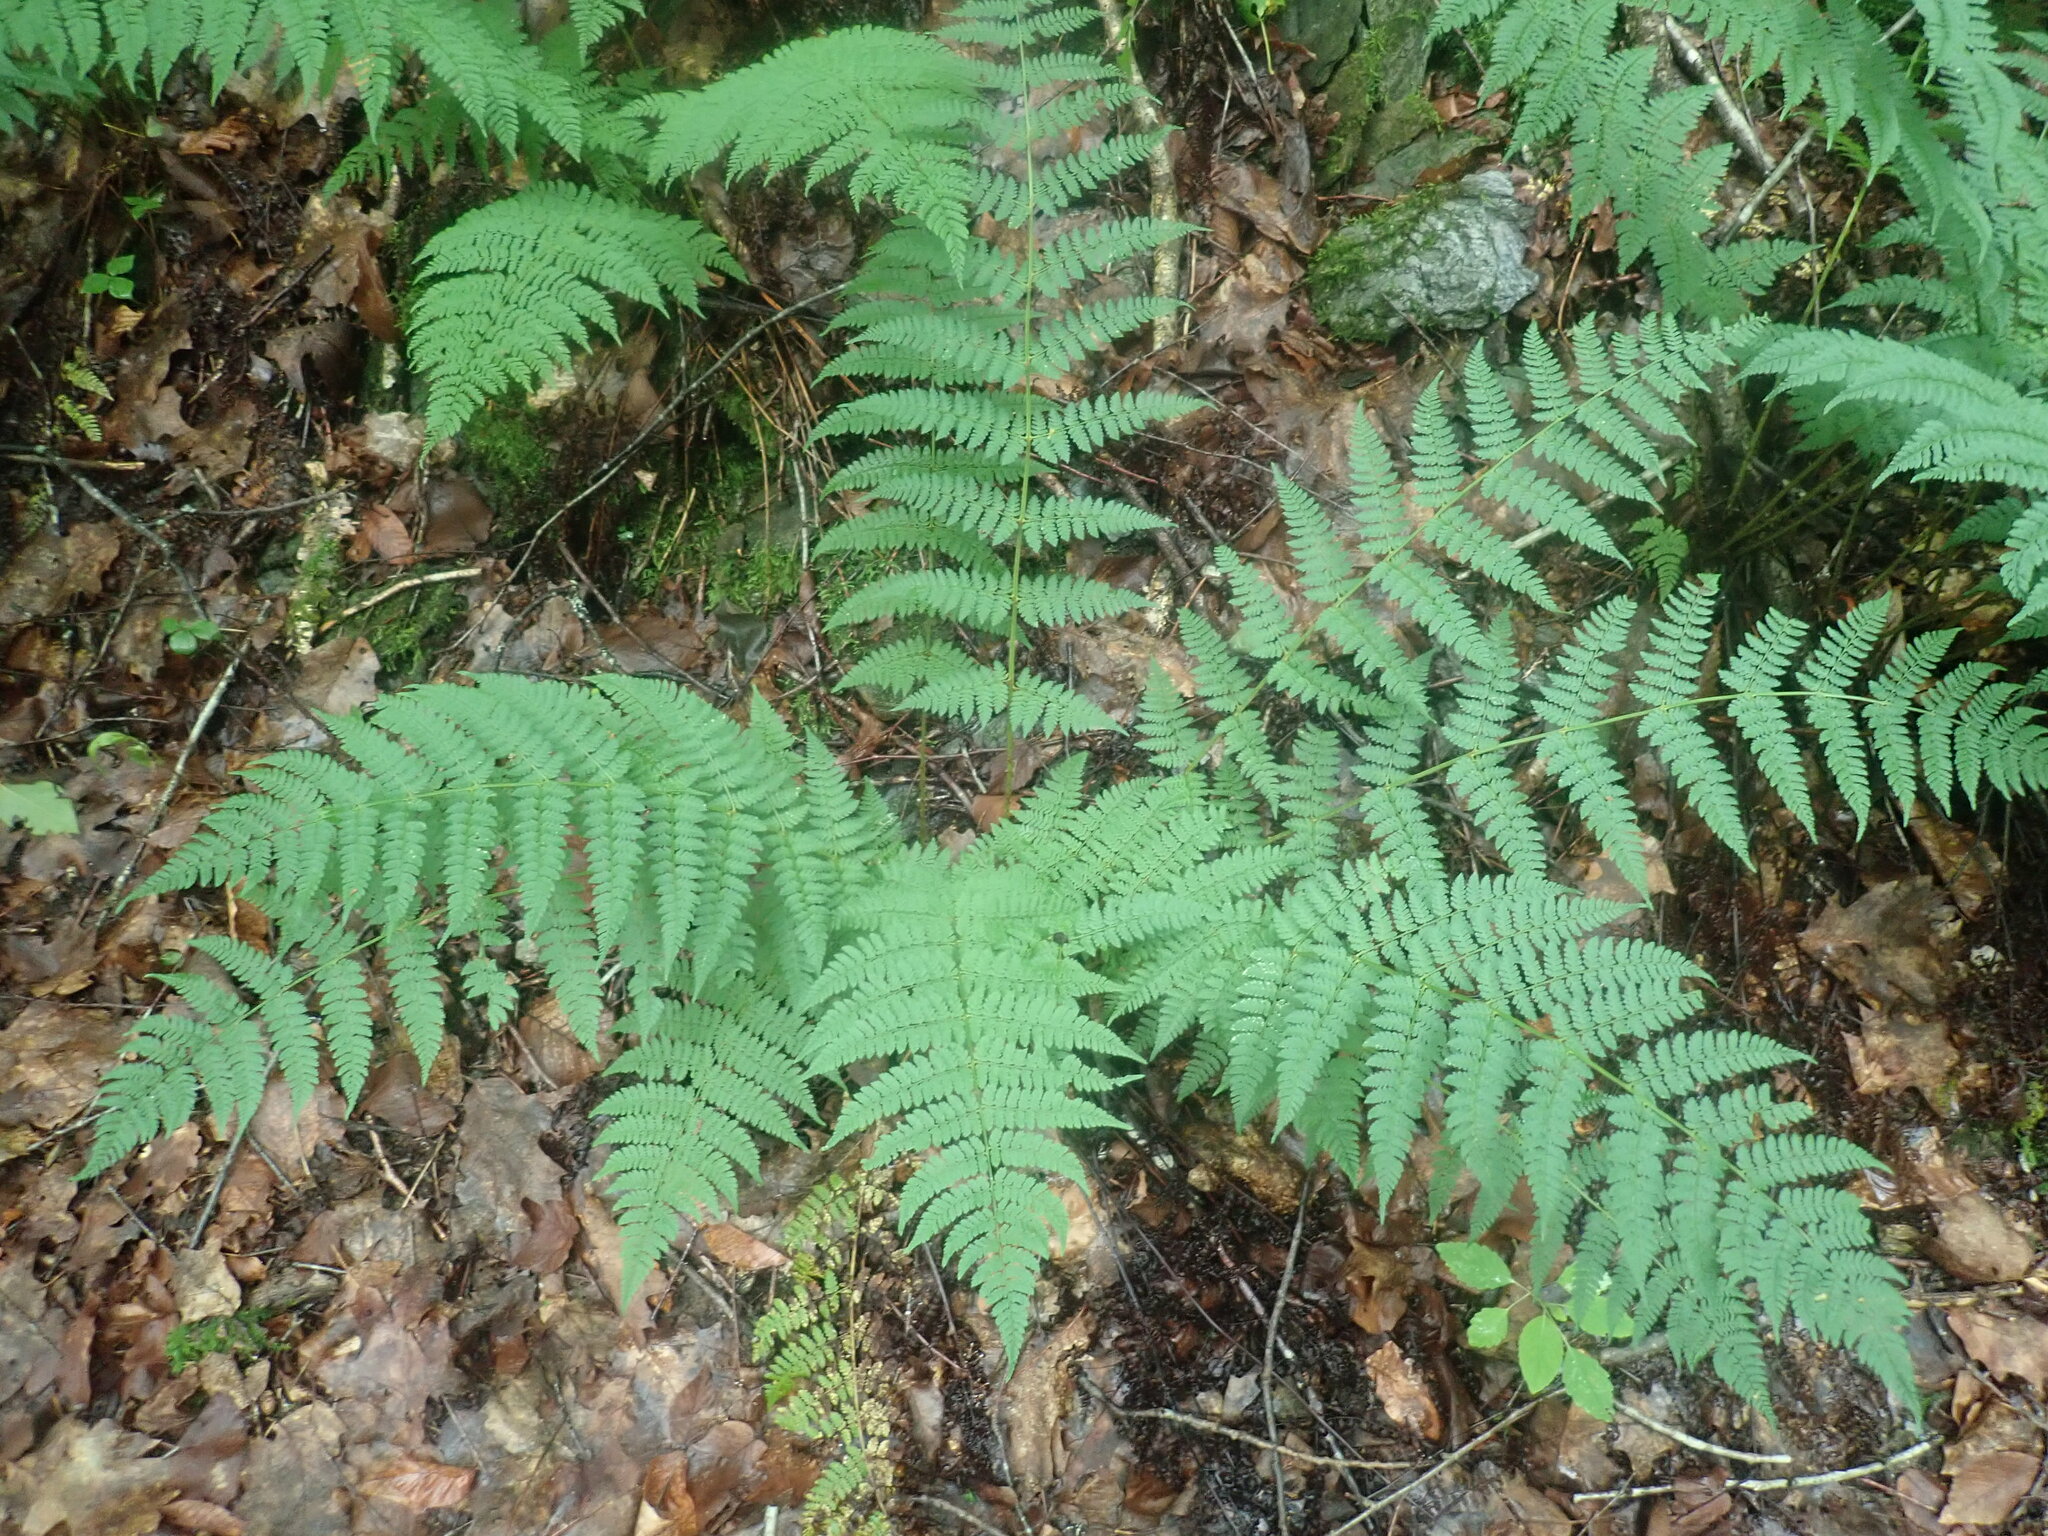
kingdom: Plantae
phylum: Tracheophyta
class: Polypodiopsida
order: Polypodiales
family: Dryopteridaceae
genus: Dryopteris
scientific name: Dryopteris intermedia
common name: Evergreen wood fern
